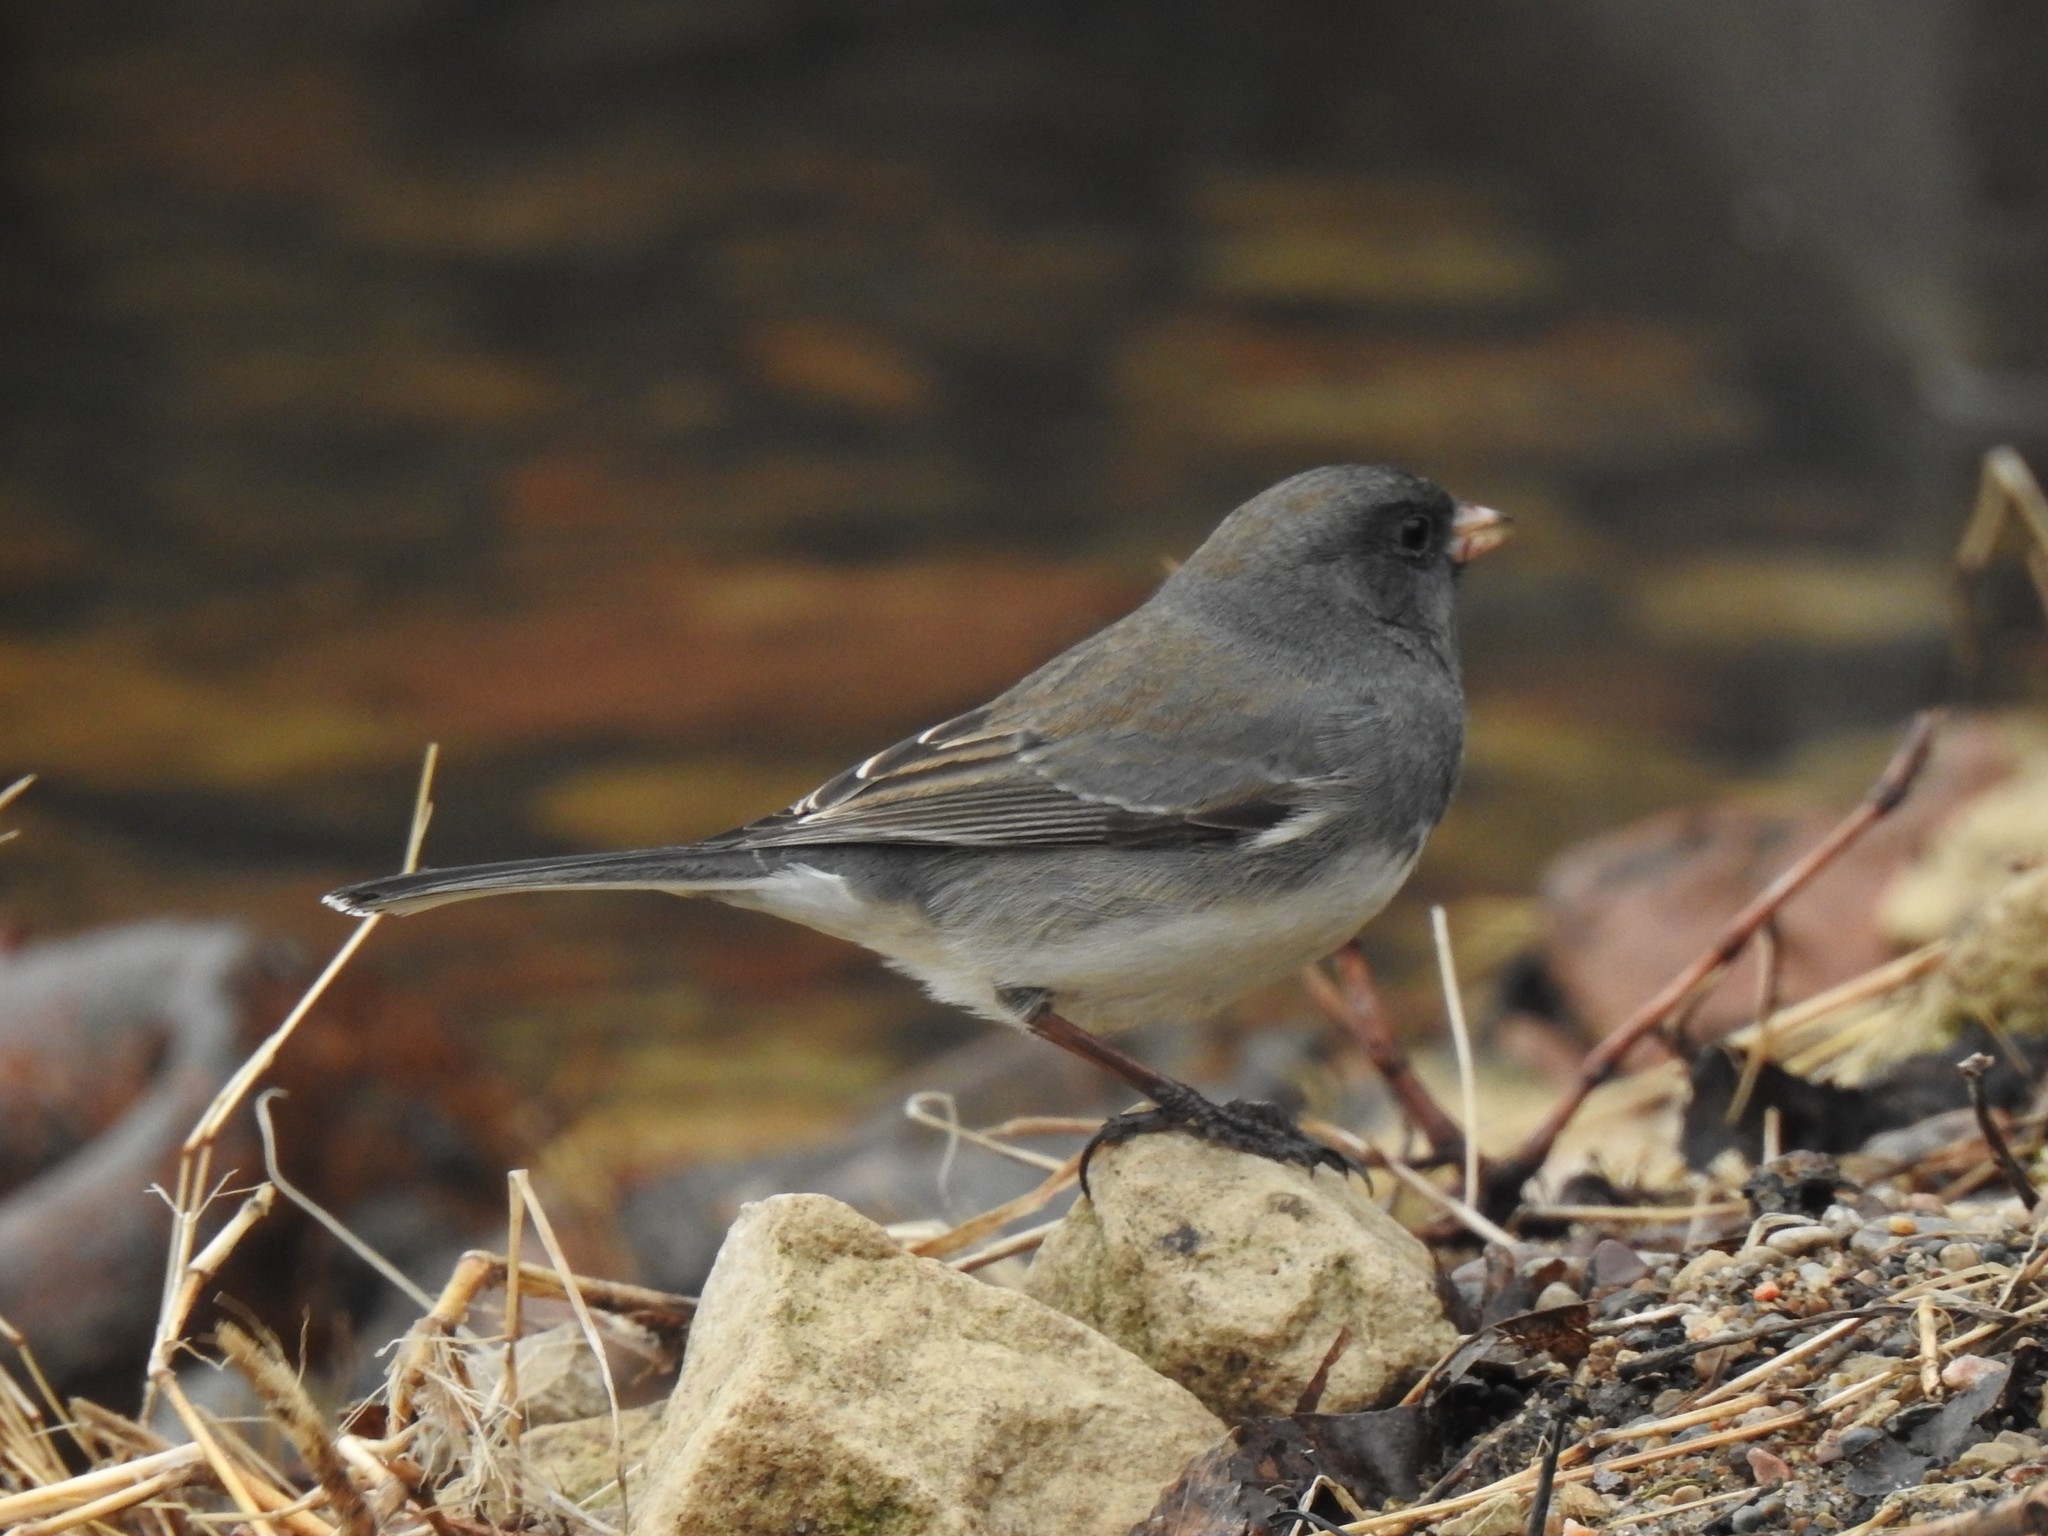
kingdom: Animalia
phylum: Chordata
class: Aves
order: Passeriformes
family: Passerellidae
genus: Junco
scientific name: Junco hyemalis
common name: Dark-eyed junco
